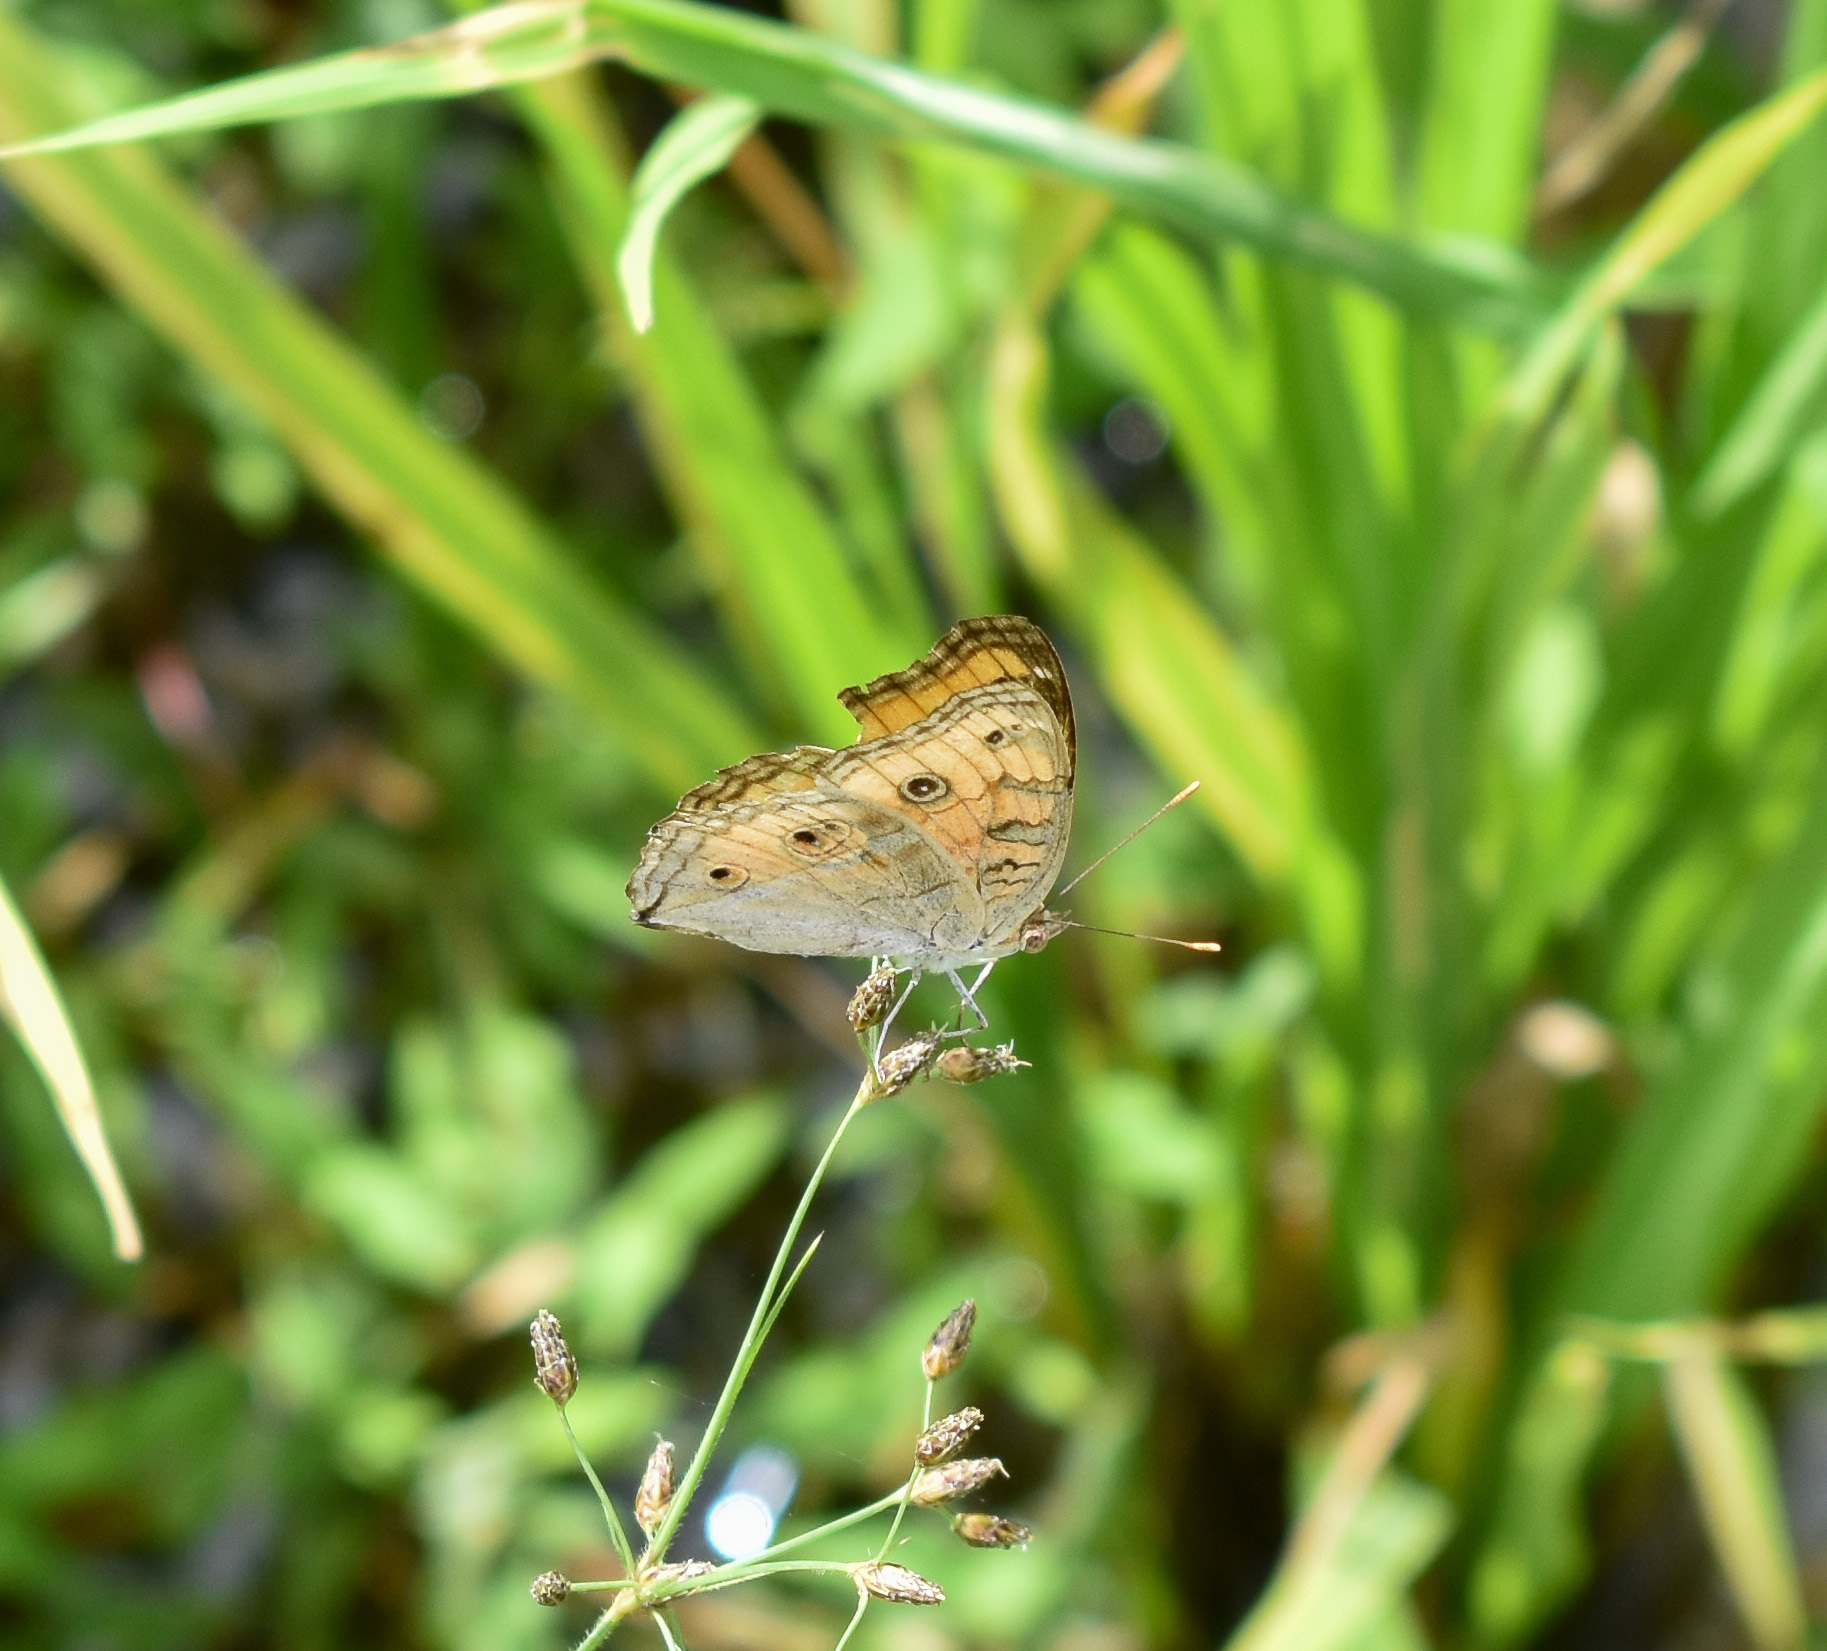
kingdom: Animalia
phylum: Arthropoda
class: Insecta
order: Lepidoptera
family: Nymphalidae
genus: Junonia
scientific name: Junonia almana
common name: Peacock pansy
